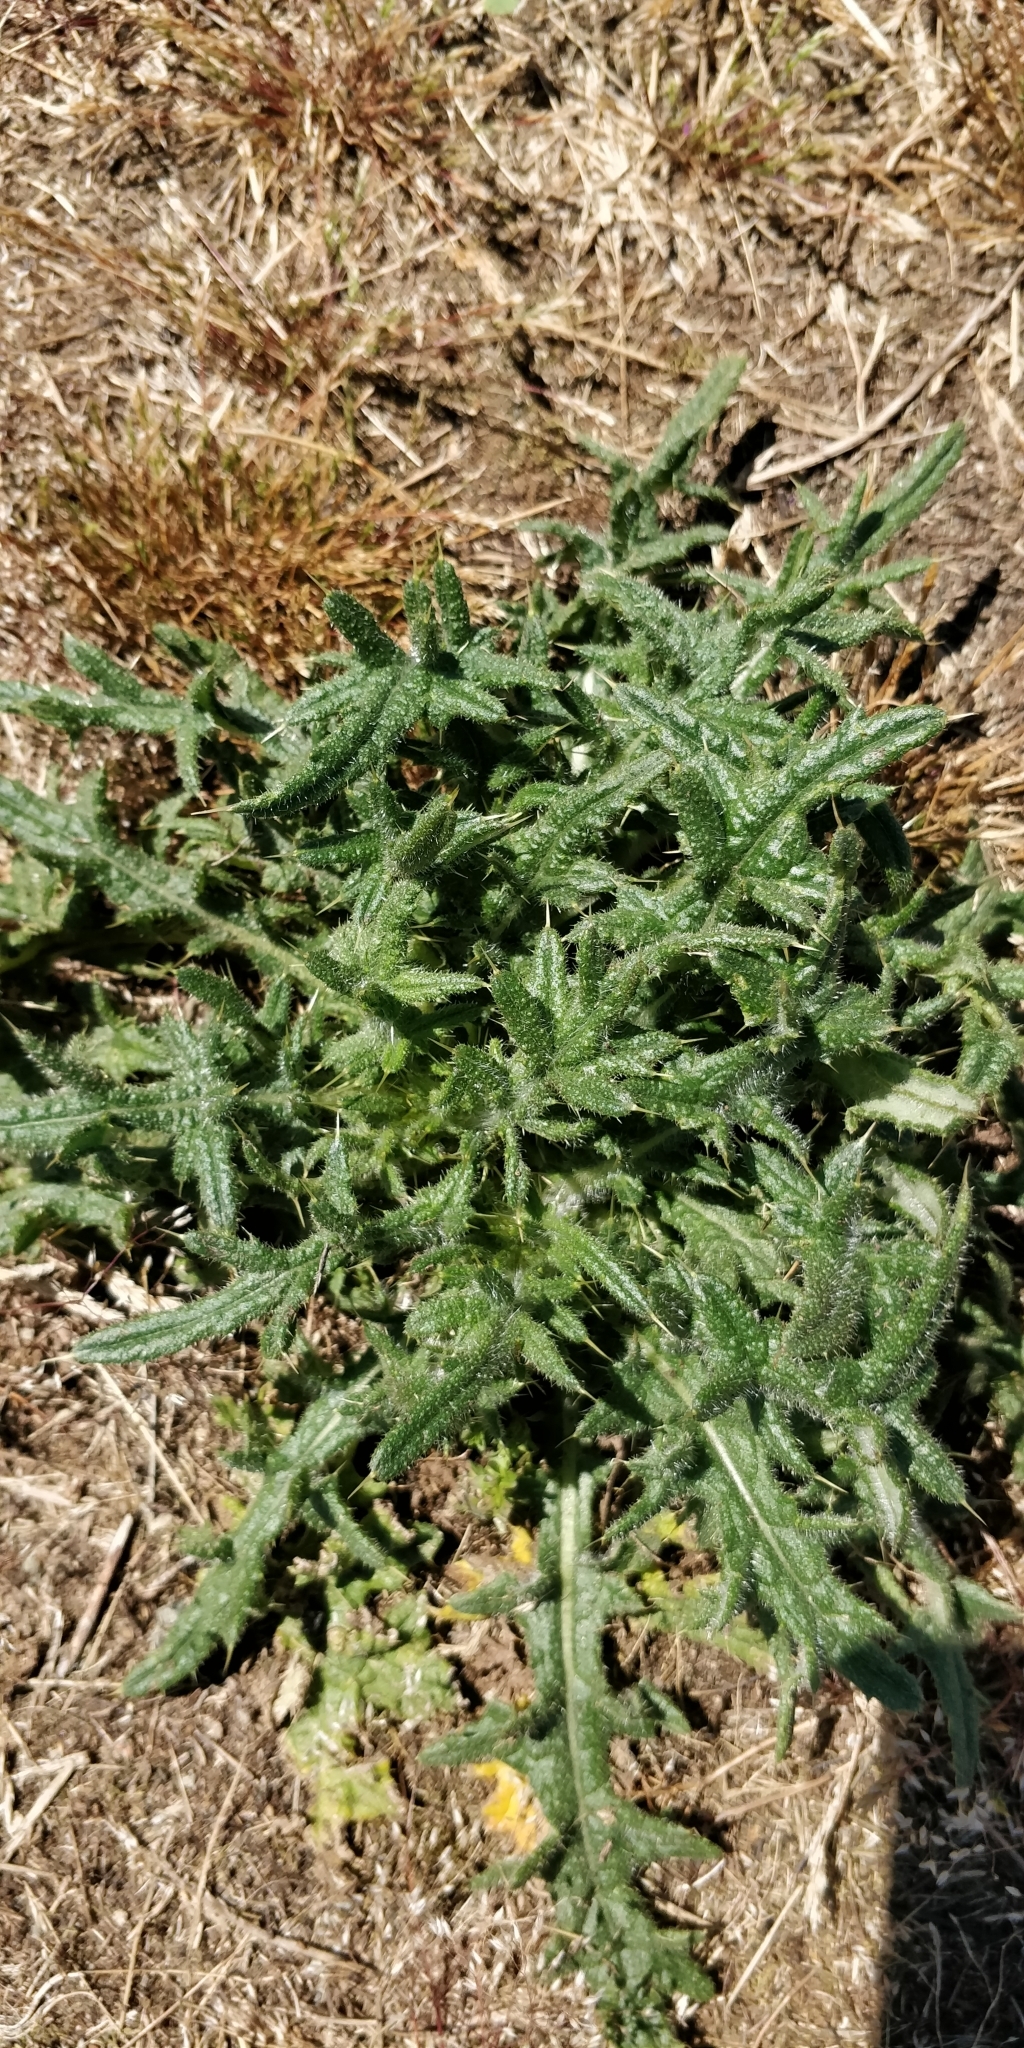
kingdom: Plantae
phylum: Tracheophyta
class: Magnoliopsida
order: Asterales
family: Asteraceae
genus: Cirsium
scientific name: Cirsium vulgare
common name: Bull thistle
